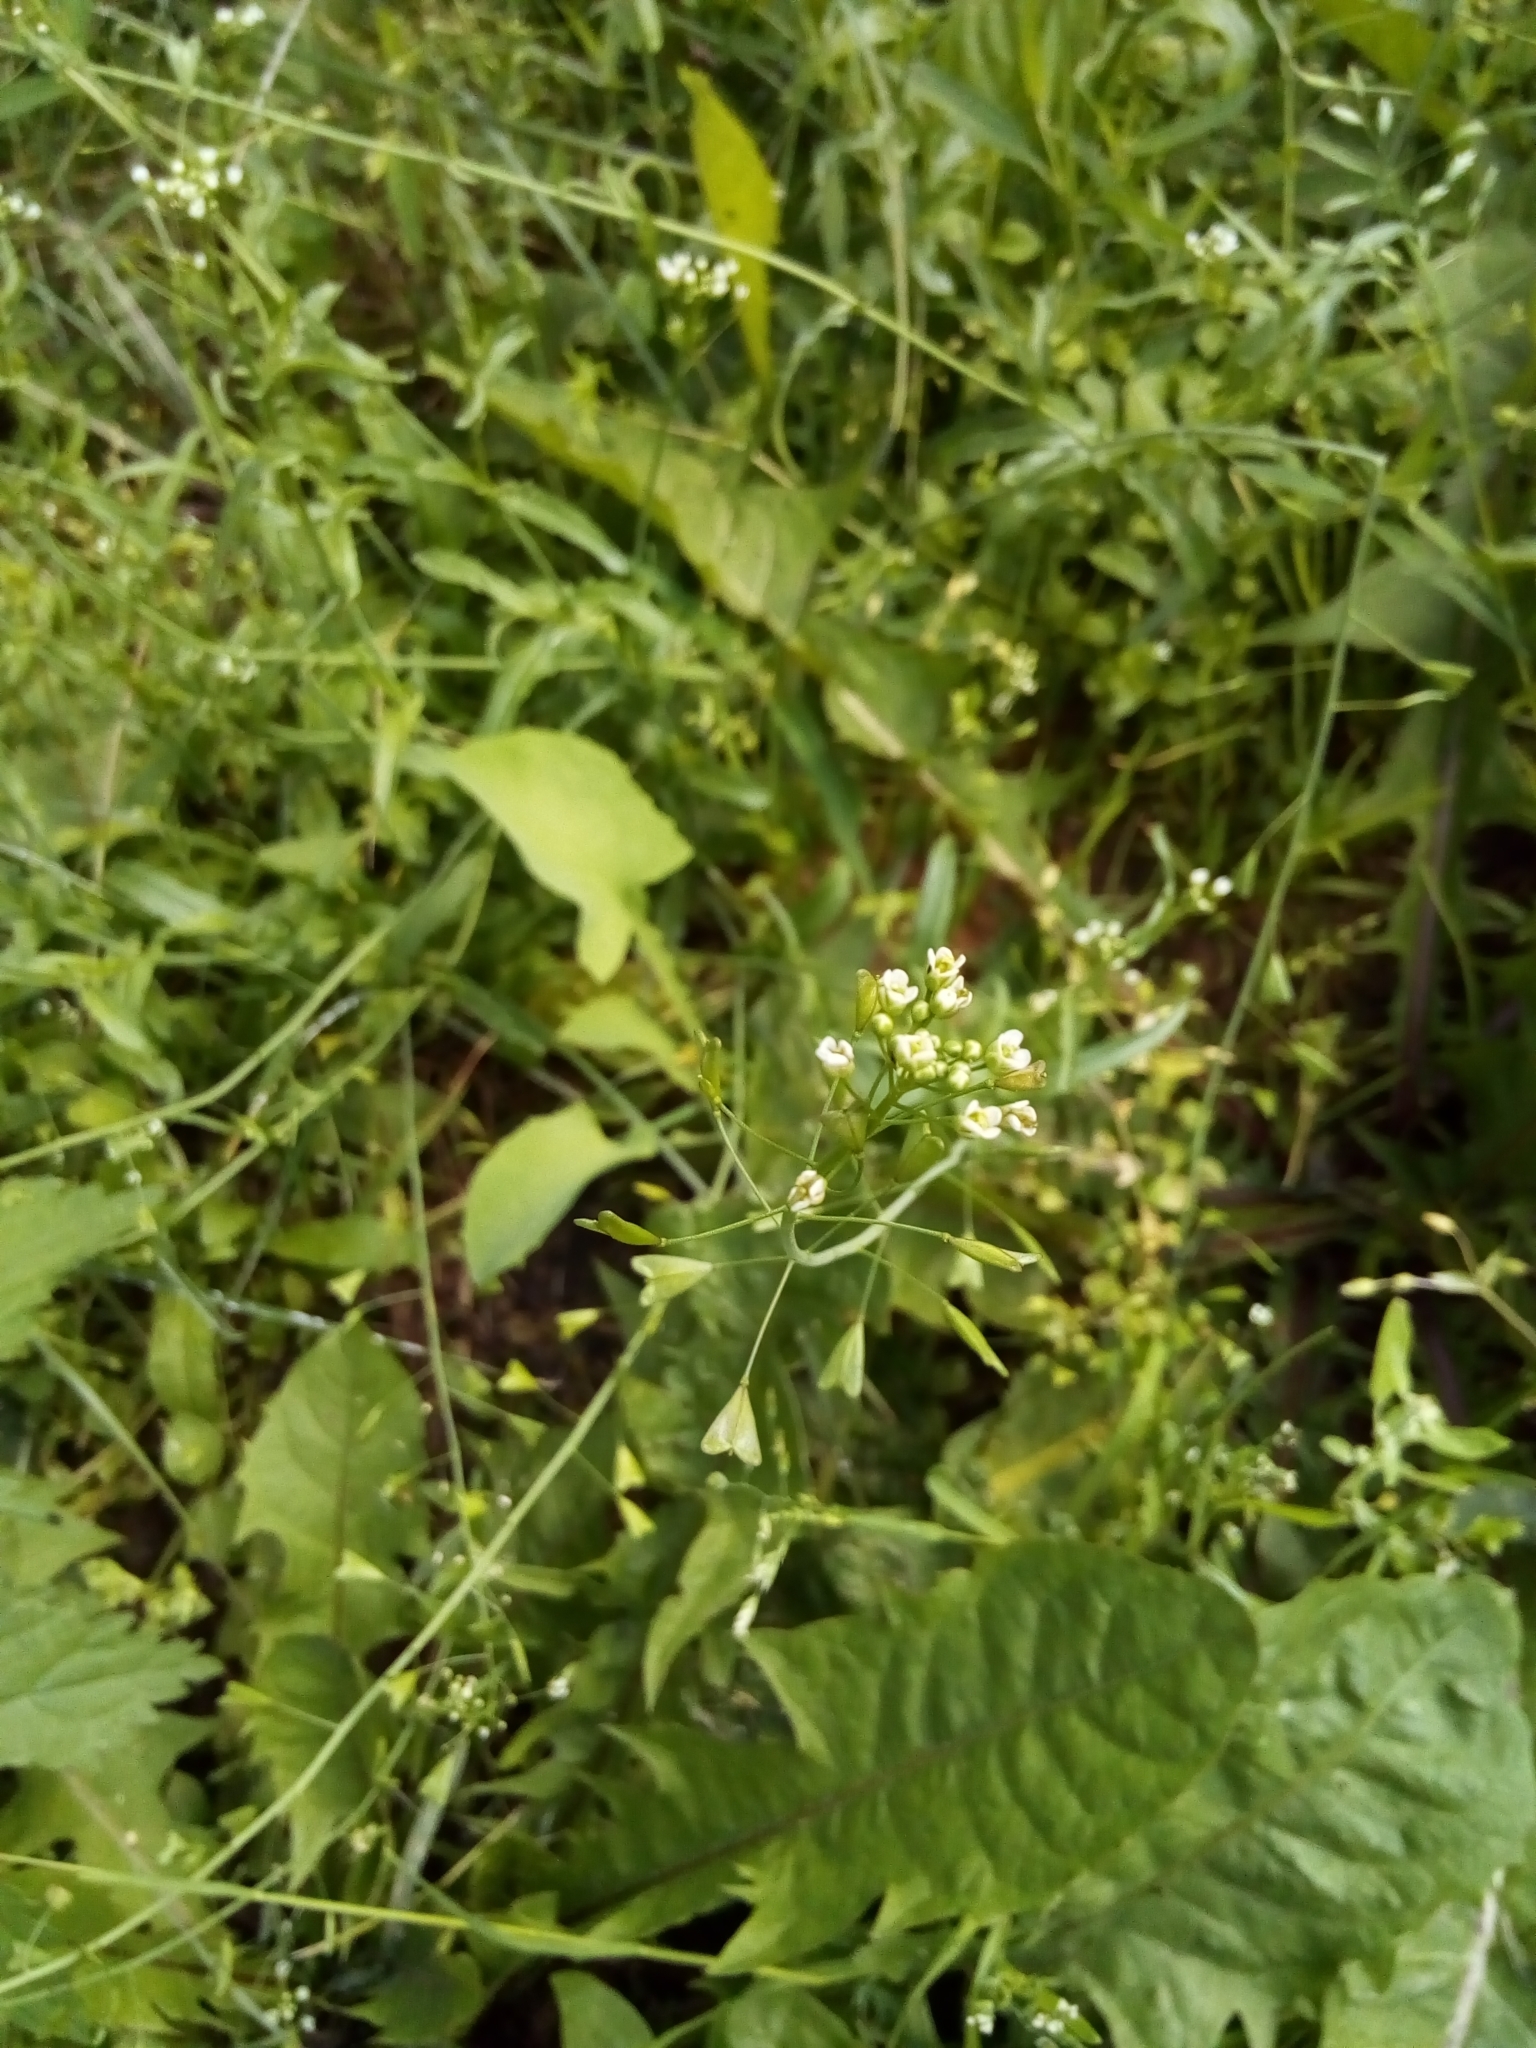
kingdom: Plantae
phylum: Tracheophyta
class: Magnoliopsida
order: Brassicales
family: Brassicaceae
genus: Capsella
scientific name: Capsella bursa-pastoris
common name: Shepherd's purse
